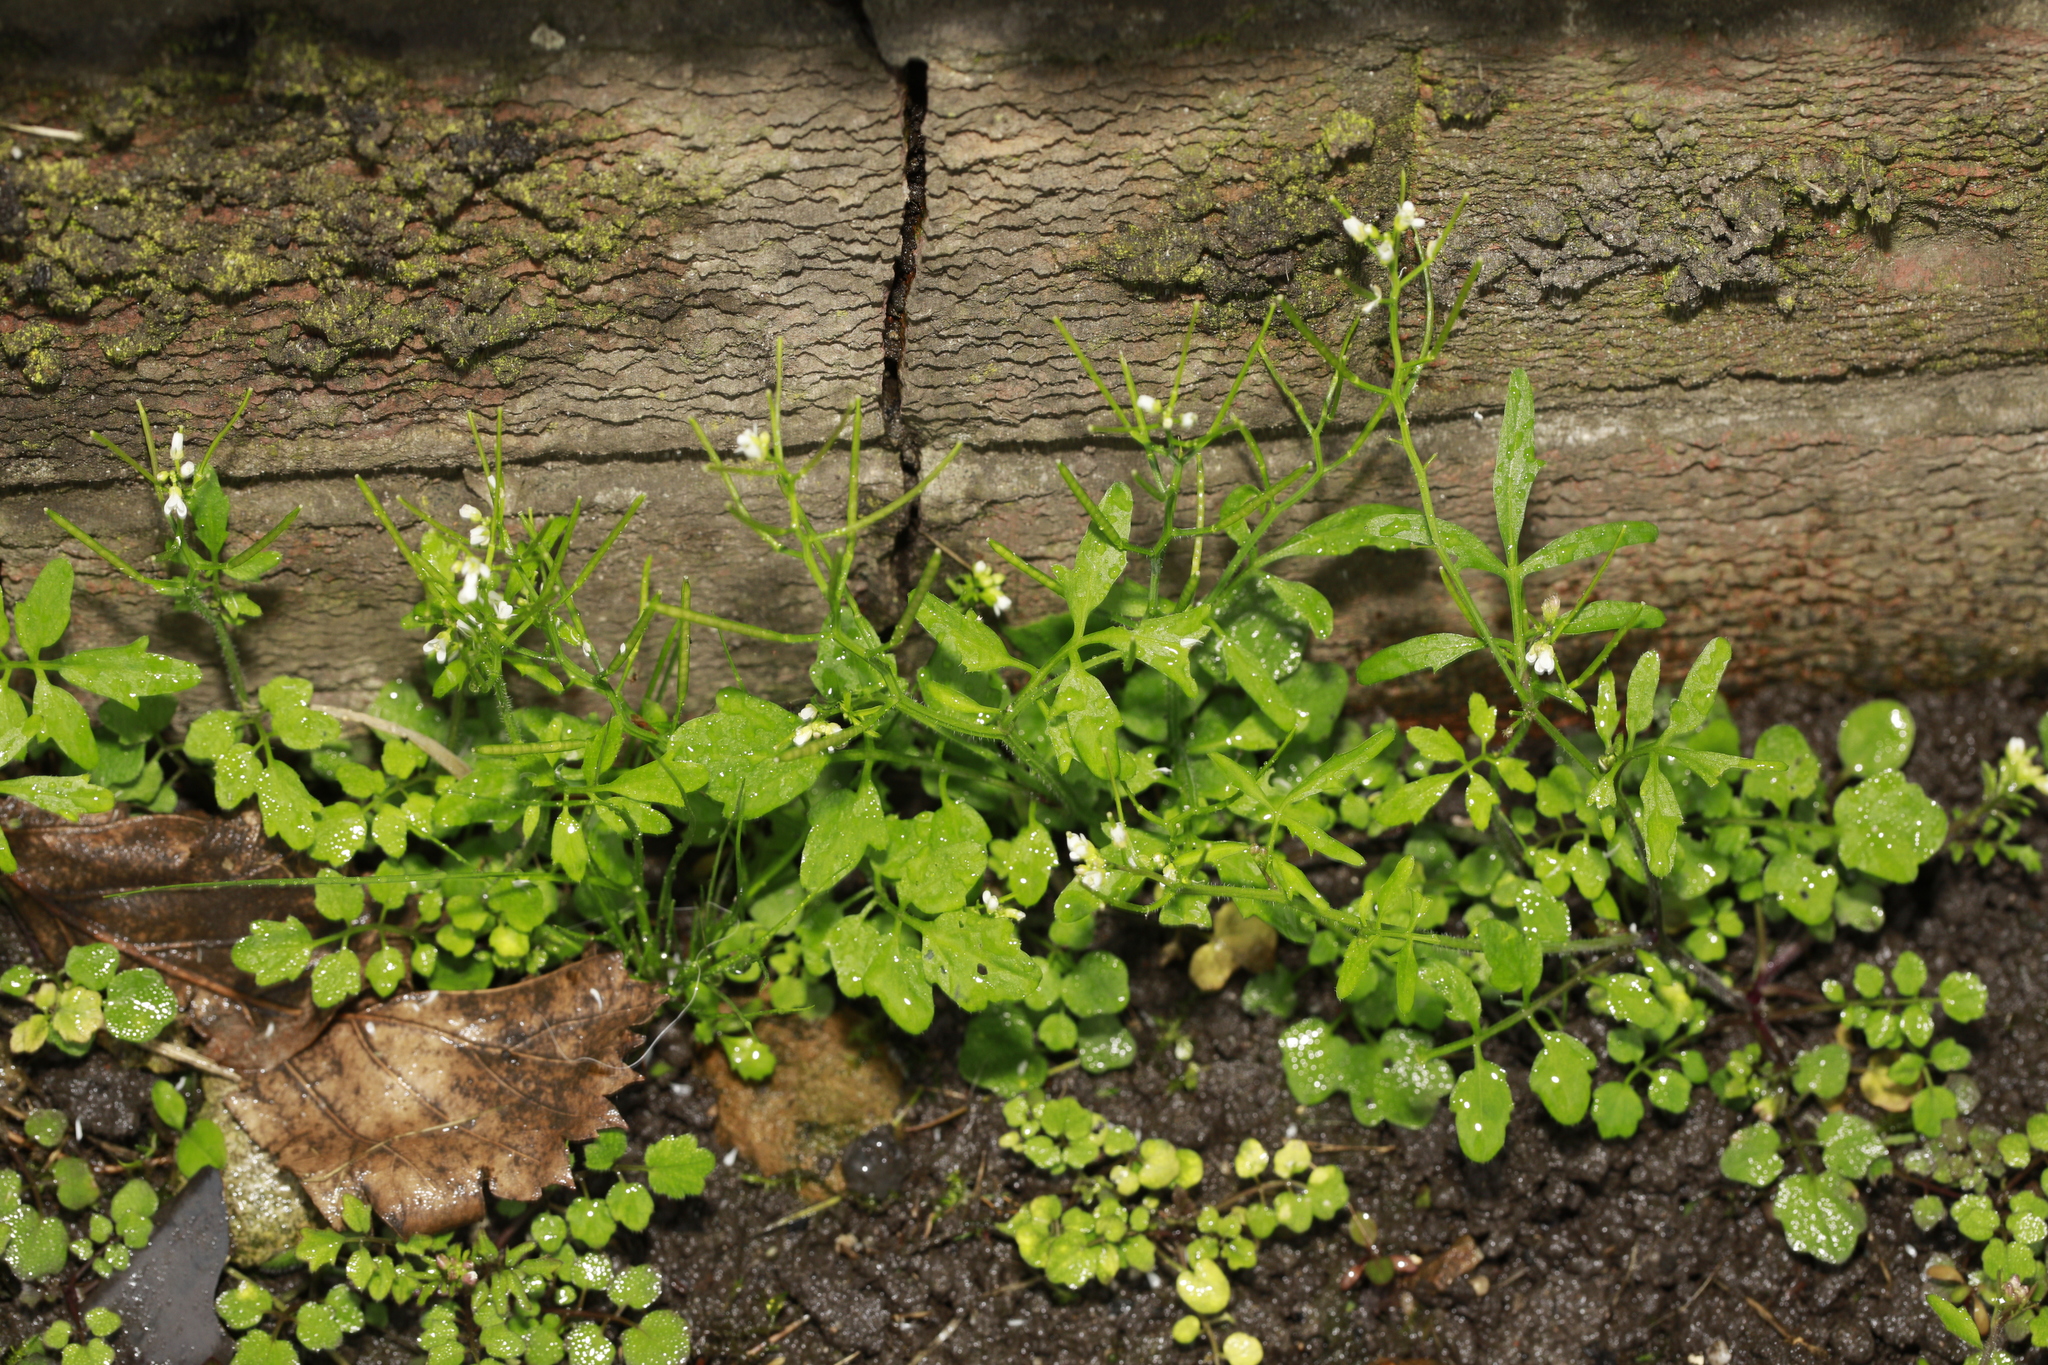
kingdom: Plantae
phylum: Tracheophyta
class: Magnoliopsida
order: Brassicales
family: Brassicaceae
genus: Cardamine
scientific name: Cardamine flexuosa
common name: Woodland bittercress
